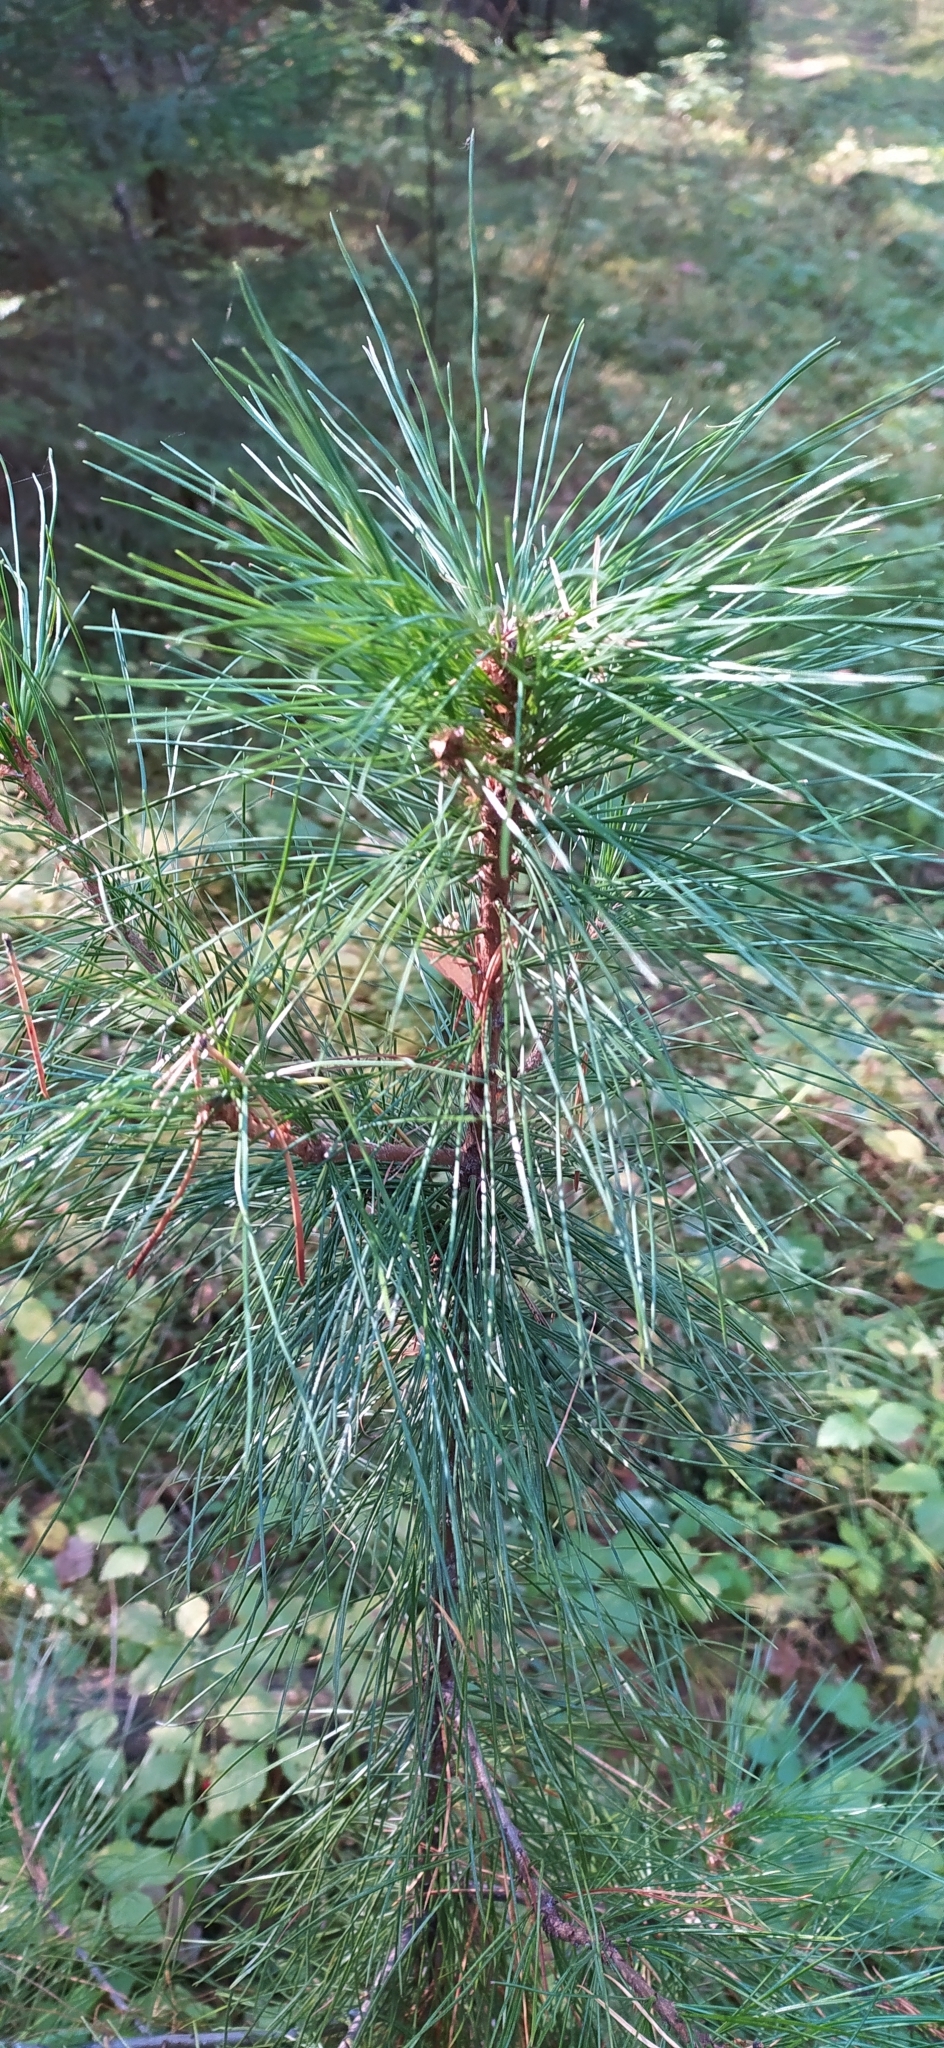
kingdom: Plantae
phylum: Tracheophyta
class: Pinopsida
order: Pinales
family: Pinaceae
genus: Pinus
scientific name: Pinus sibirica
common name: Siberian pine
